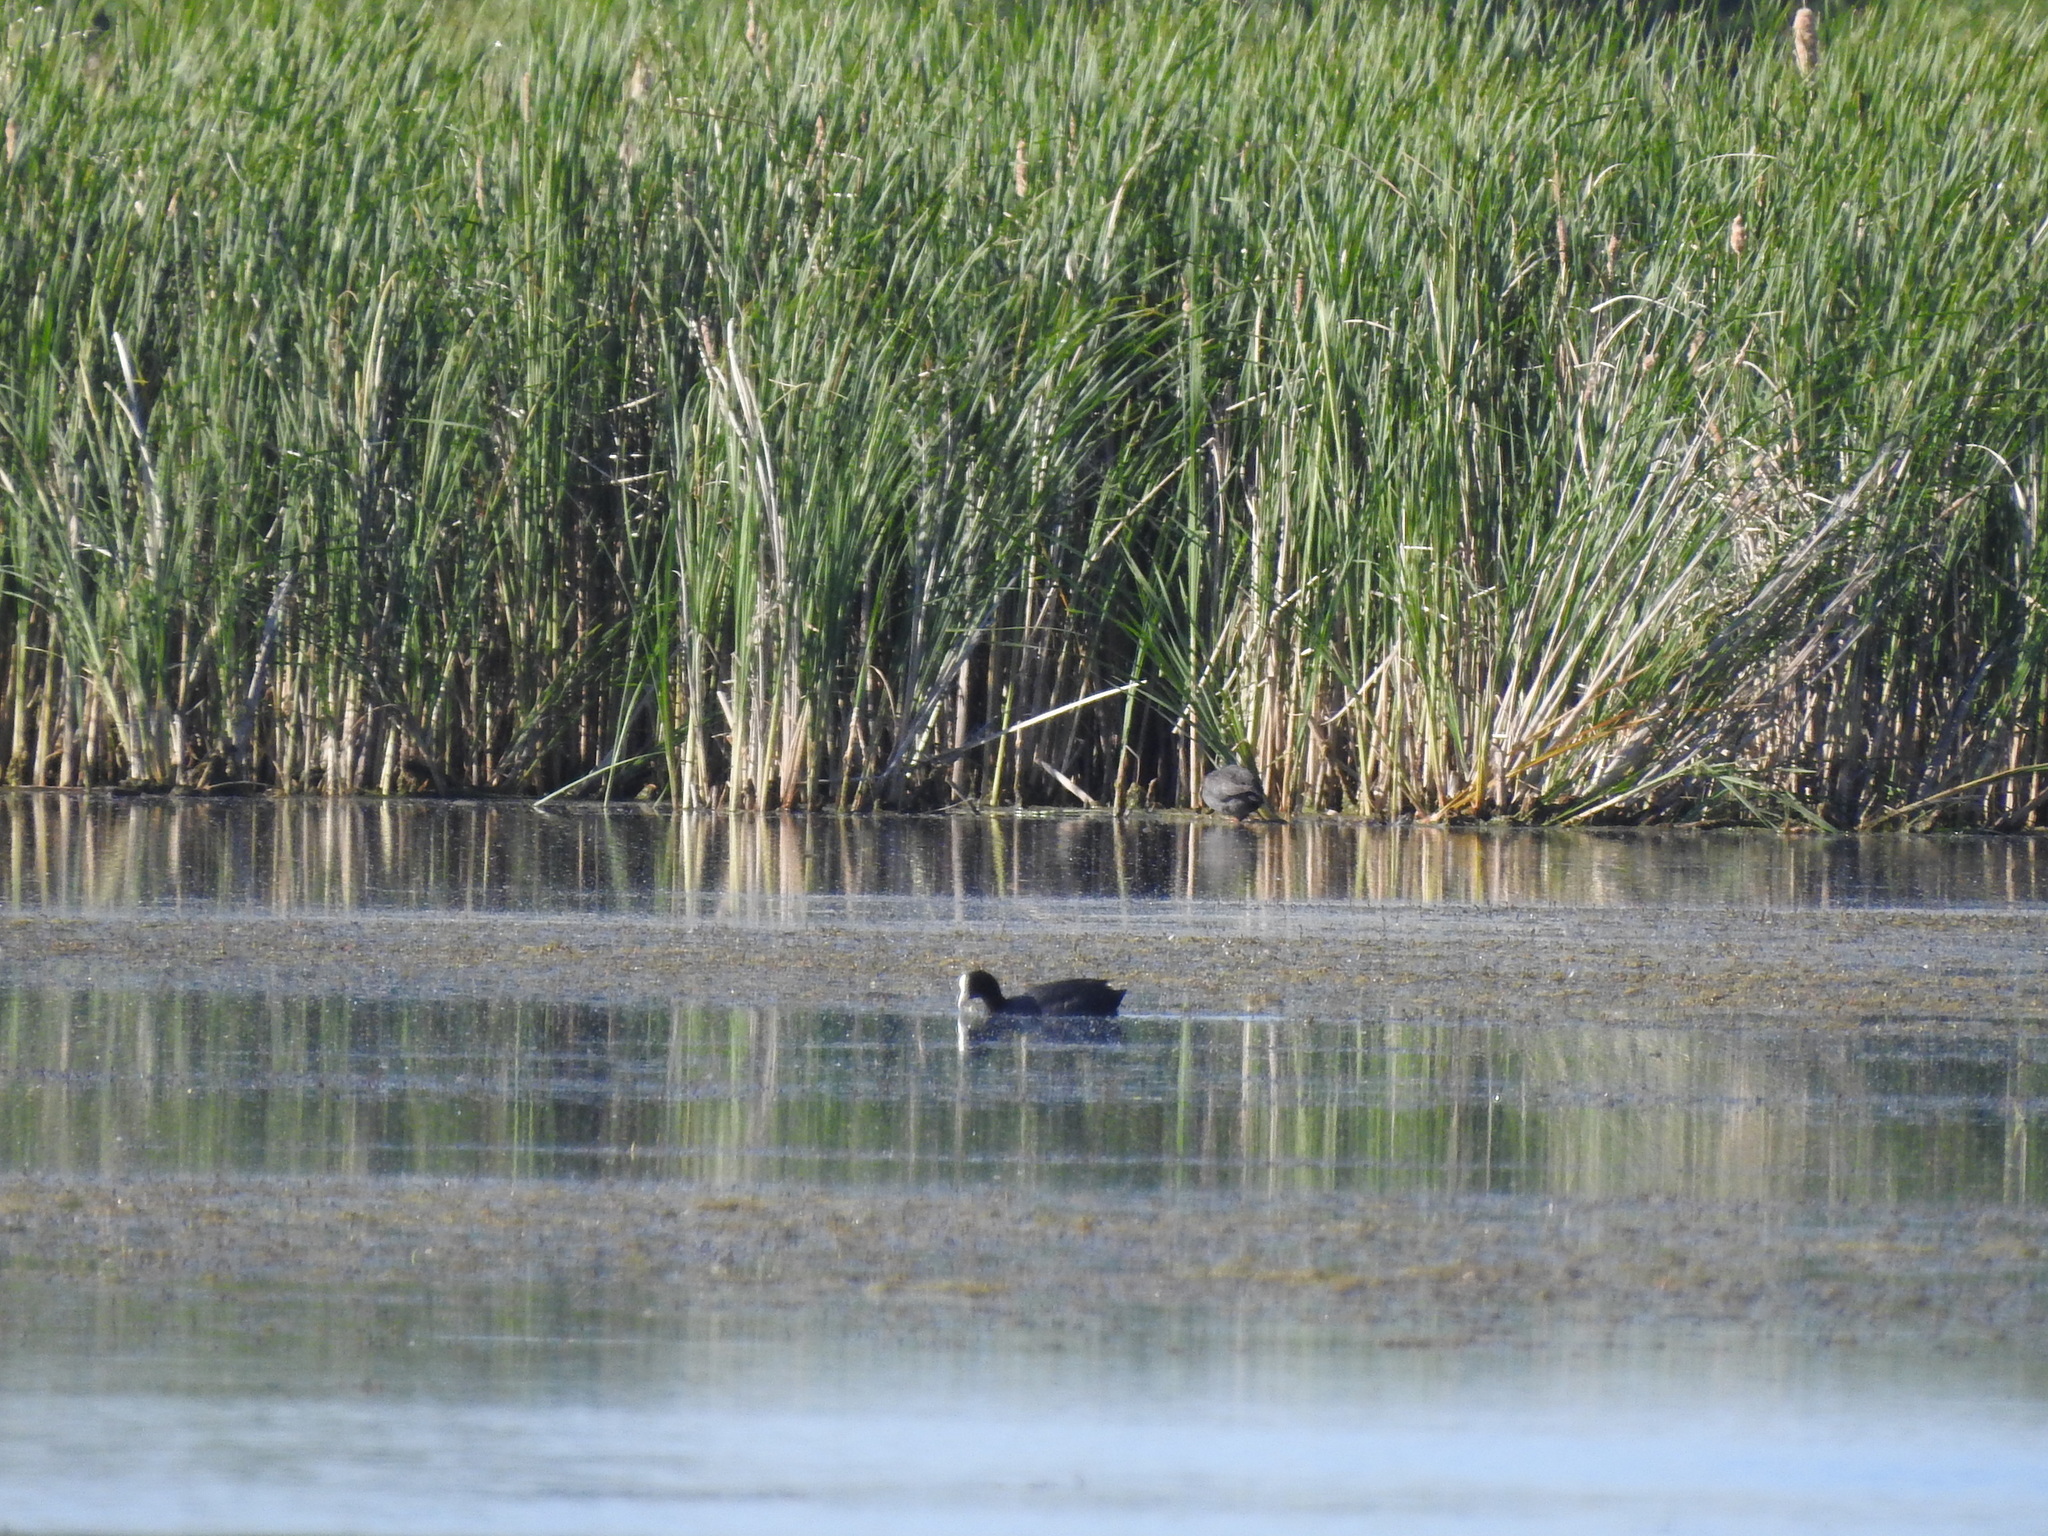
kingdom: Animalia
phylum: Chordata
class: Aves
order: Gruiformes
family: Rallidae
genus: Fulica
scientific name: Fulica atra
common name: Eurasian coot
